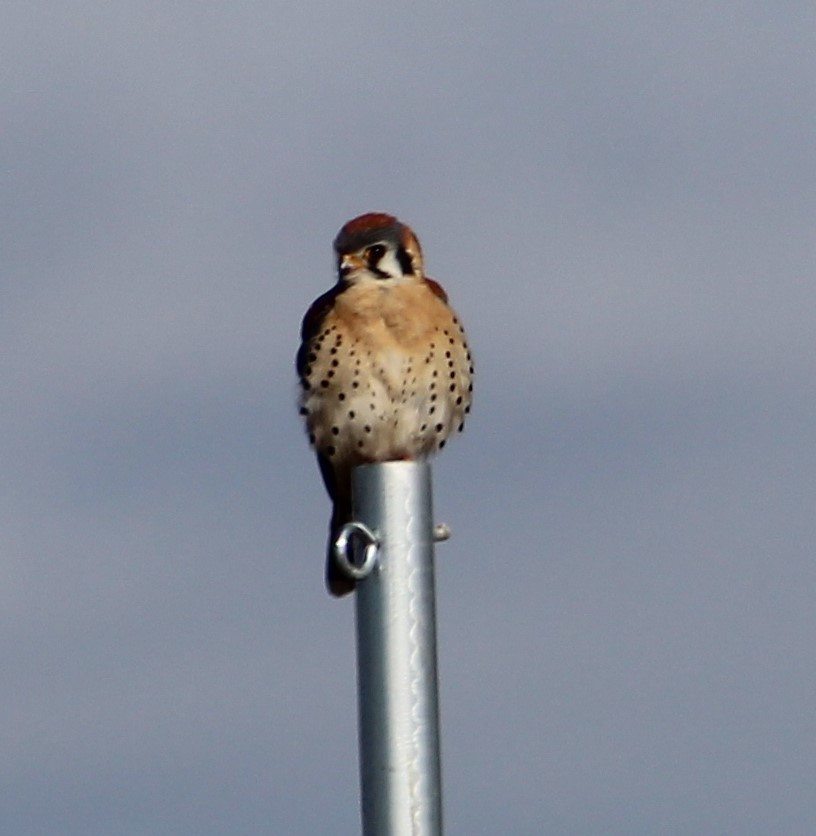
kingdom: Animalia
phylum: Chordata
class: Aves
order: Falconiformes
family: Falconidae
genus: Falco
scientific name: Falco sparverius
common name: American kestrel
